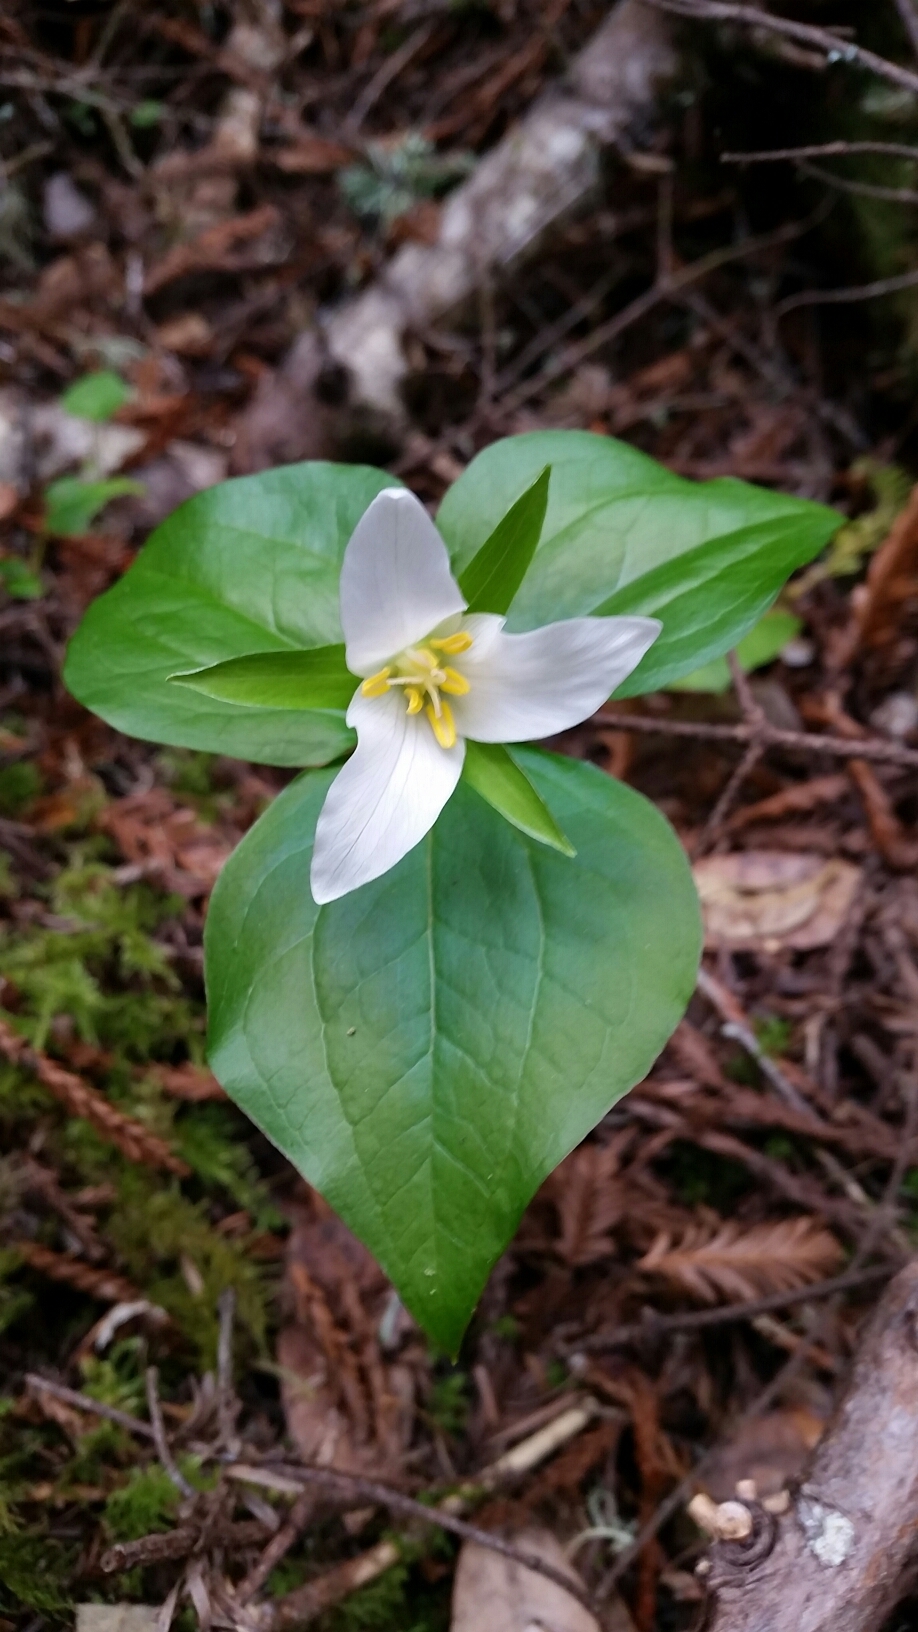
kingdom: Plantae
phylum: Tracheophyta
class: Liliopsida
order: Liliales
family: Melanthiaceae
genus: Trillium
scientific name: Trillium ovatum
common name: Pacific trillium
